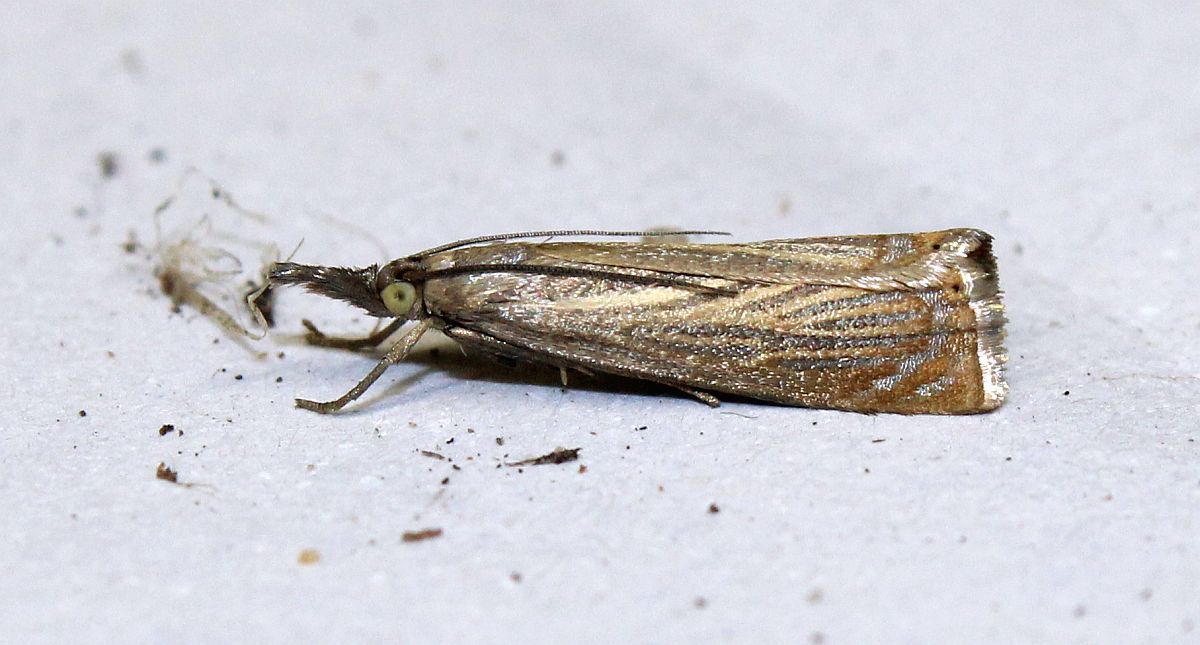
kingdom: Animalia
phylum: Arthropoda
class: Insecta
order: Lepidoptera
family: Crambidae
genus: Chrysoteuchia
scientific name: Chrysoteuchia culmella
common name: Garden grass-veneer
